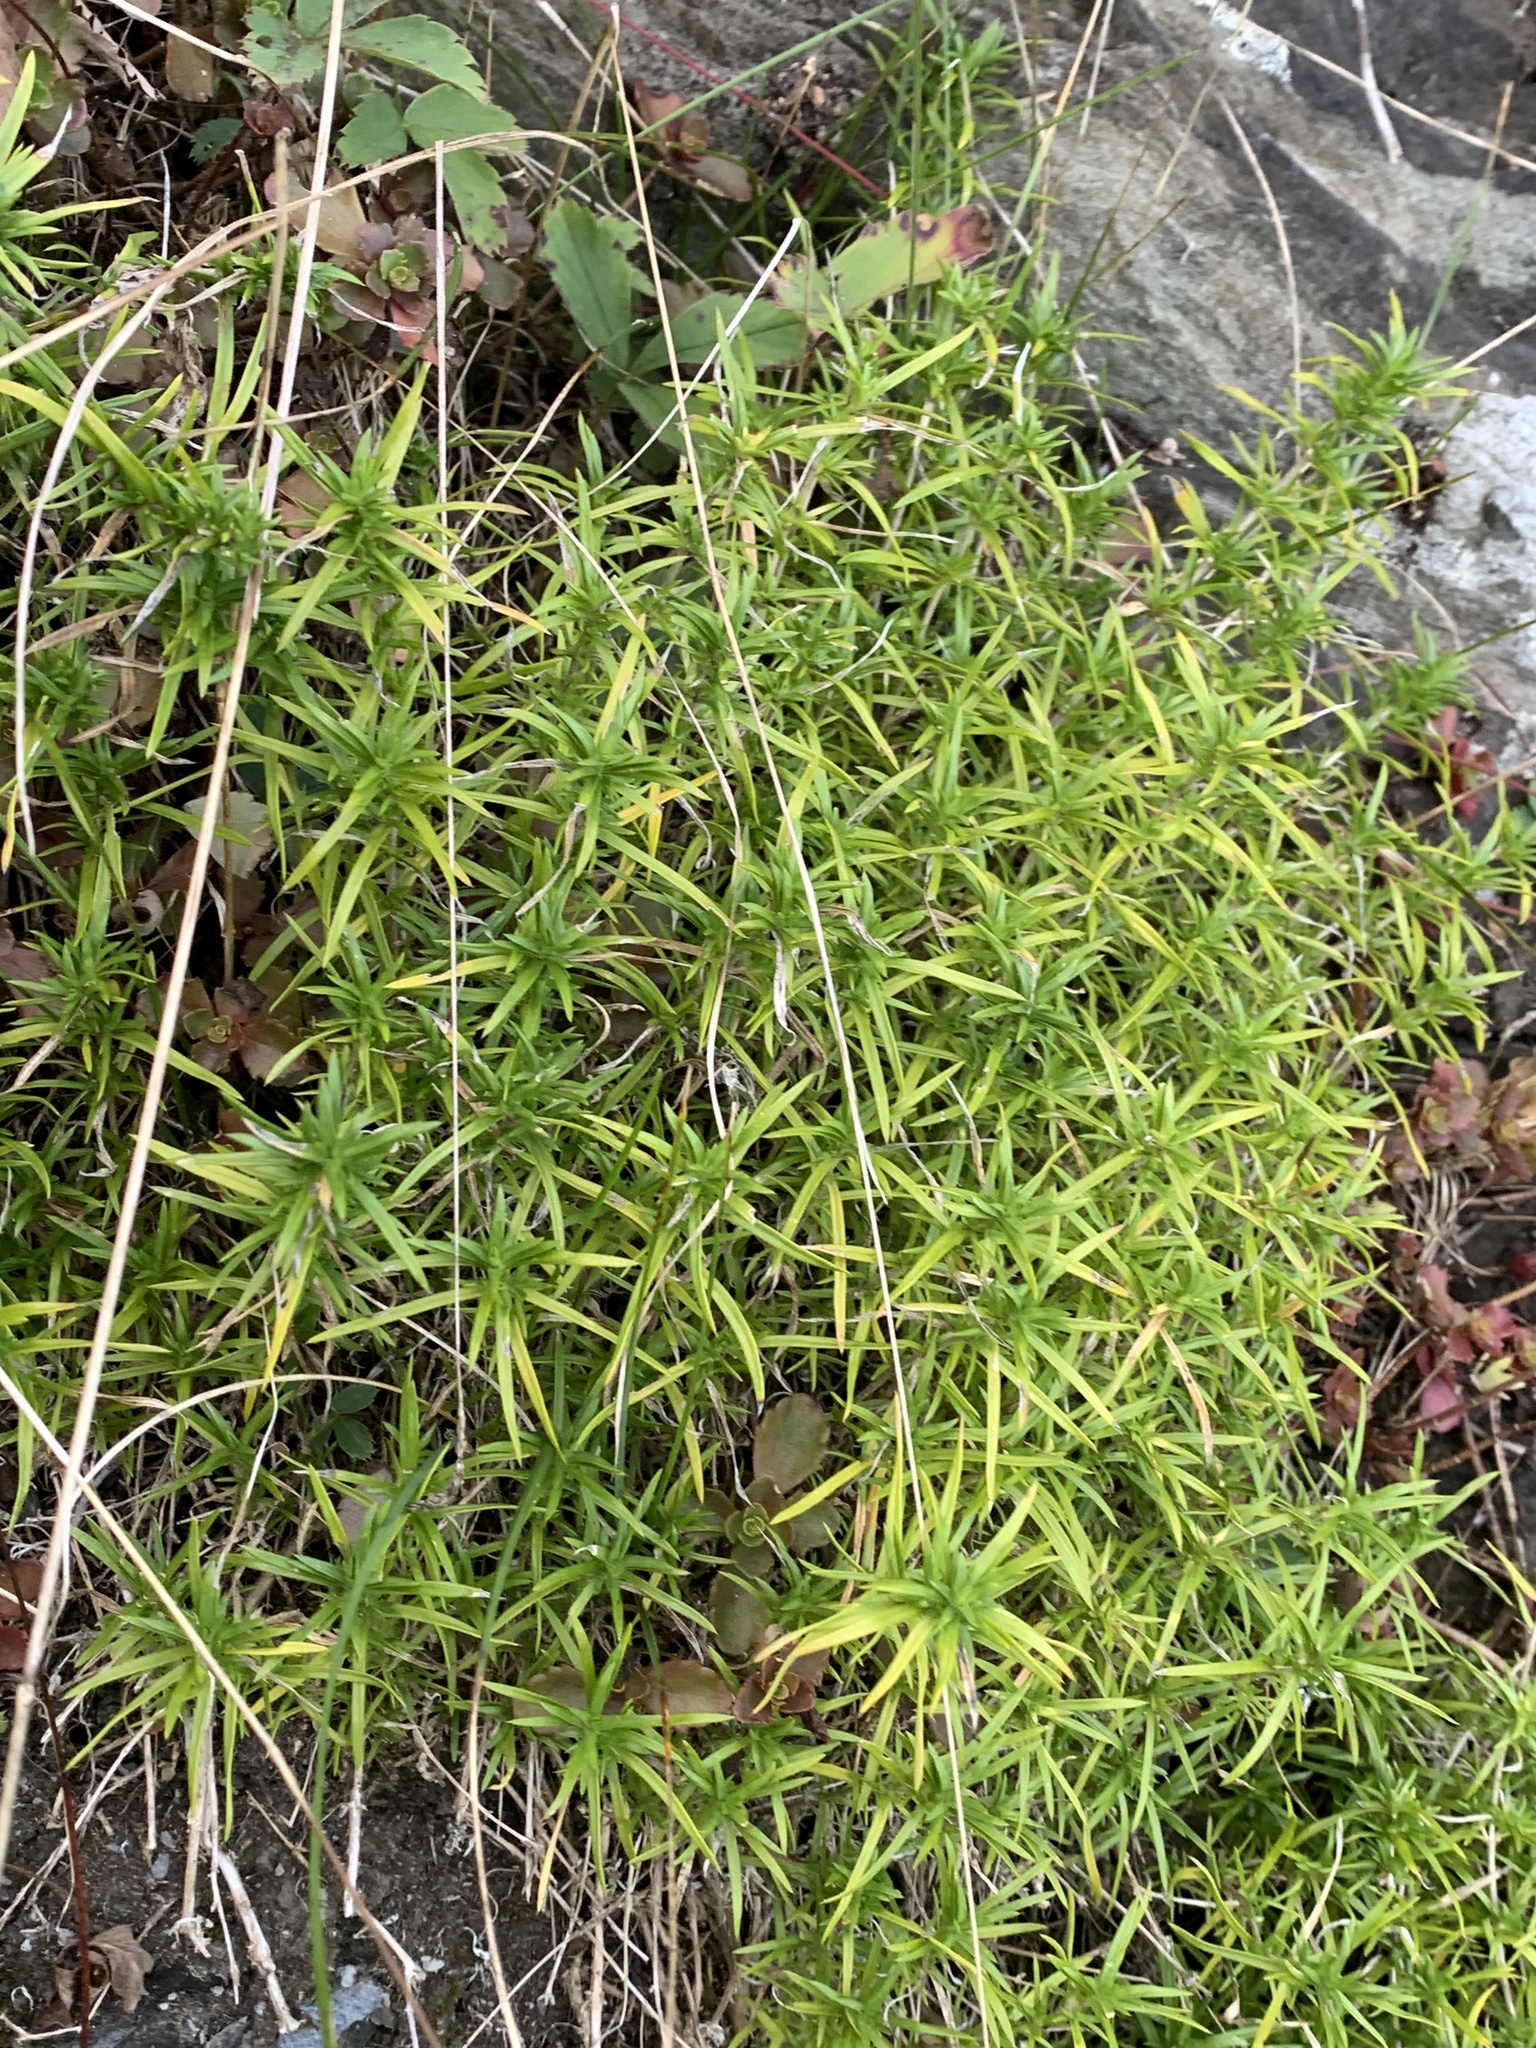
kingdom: Plantae
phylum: Tracheophyta
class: Magnoliopsida
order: Ericales
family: Polemoniaceae
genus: Phlox
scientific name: Phlox subulata
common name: Moss phlox
